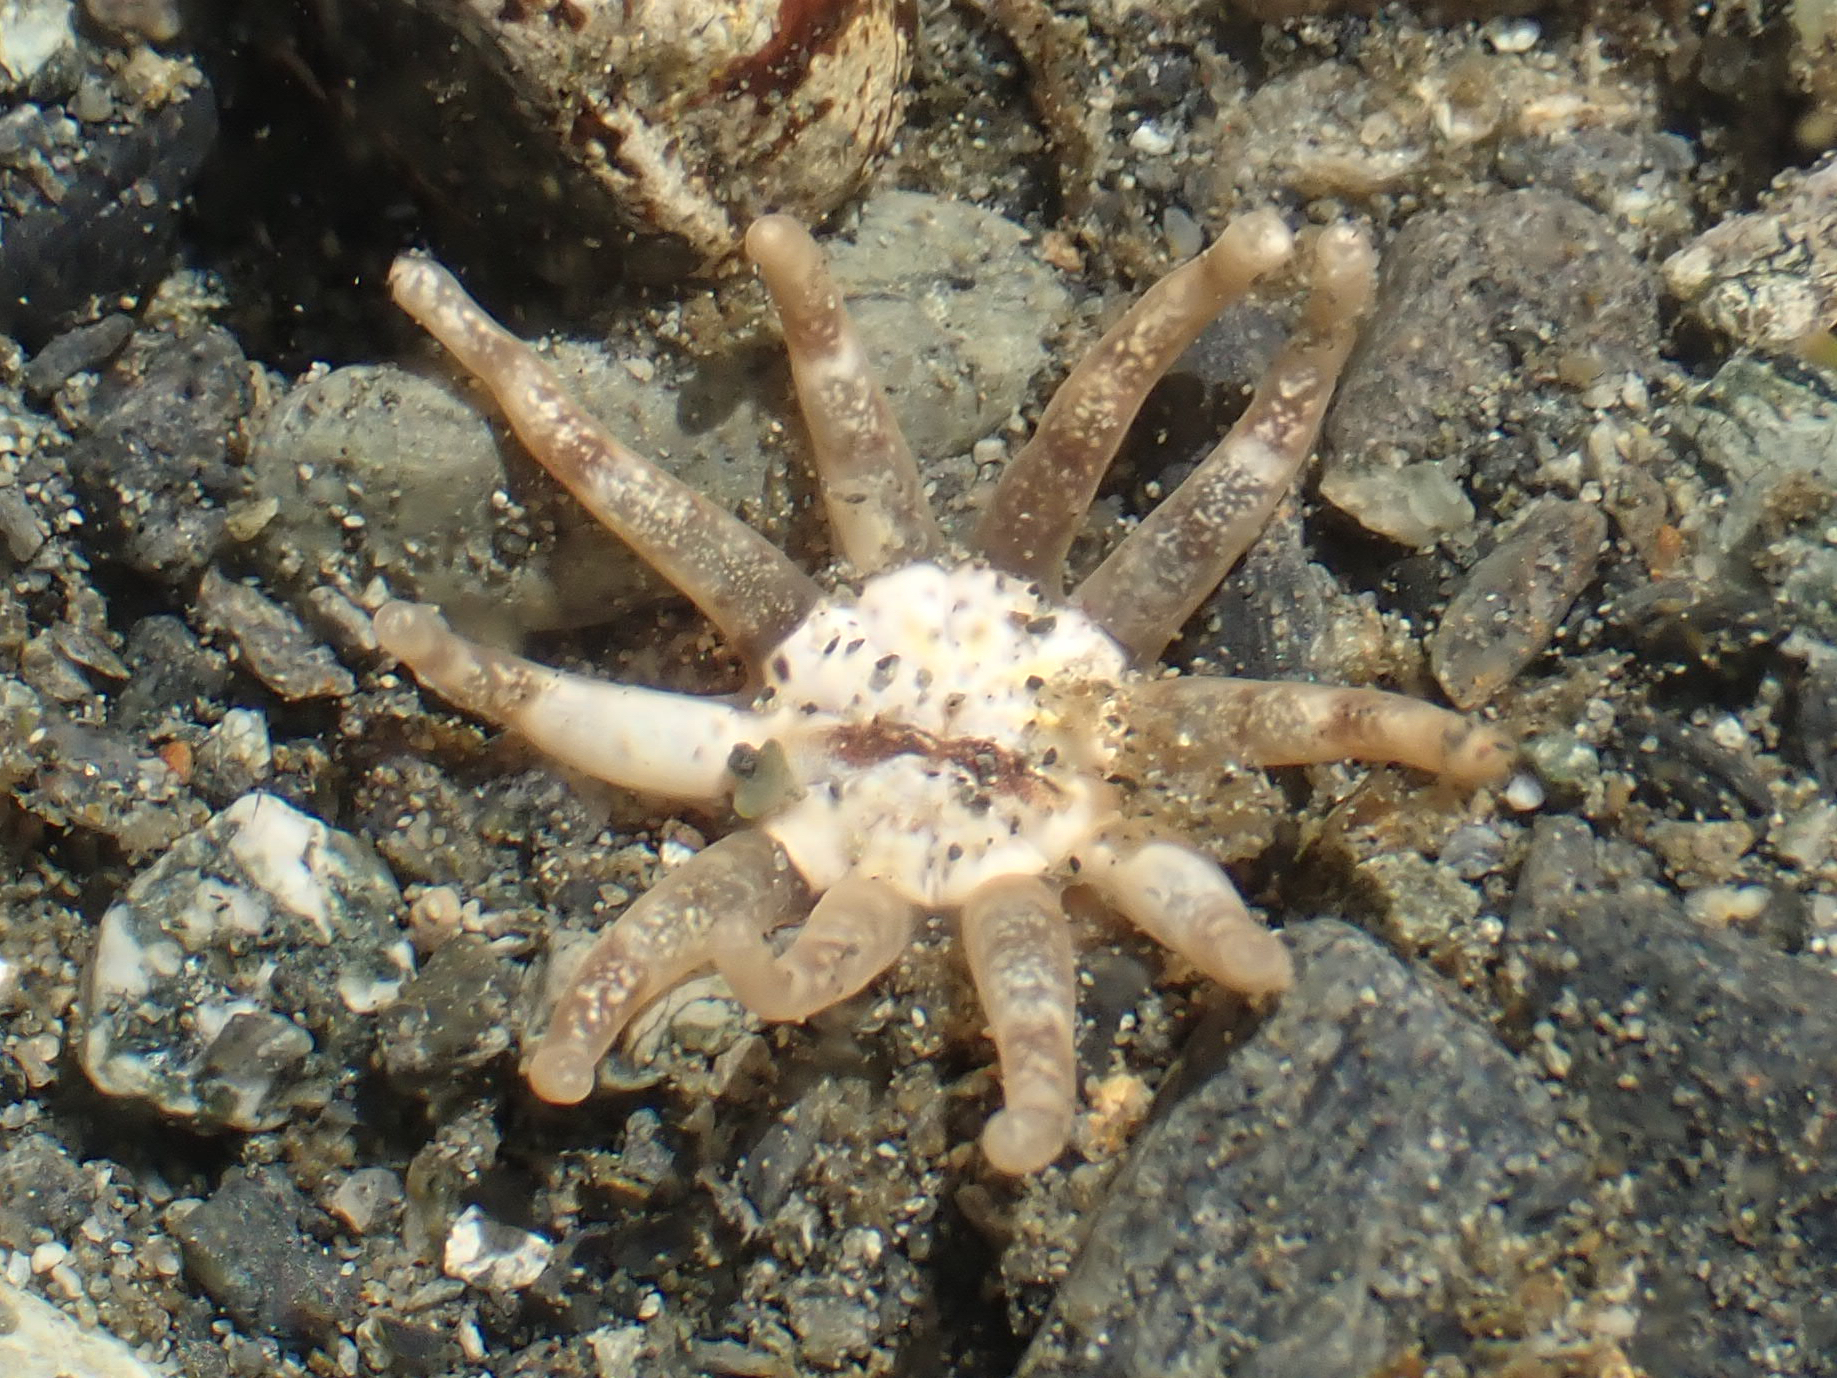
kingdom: Animalia
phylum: Cnidaria
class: Anthozoa
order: Actiniaria
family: Halcampidae
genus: Halcampa
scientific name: Halcampa decemtentaculata
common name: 10-tentacle burrowing anemone
